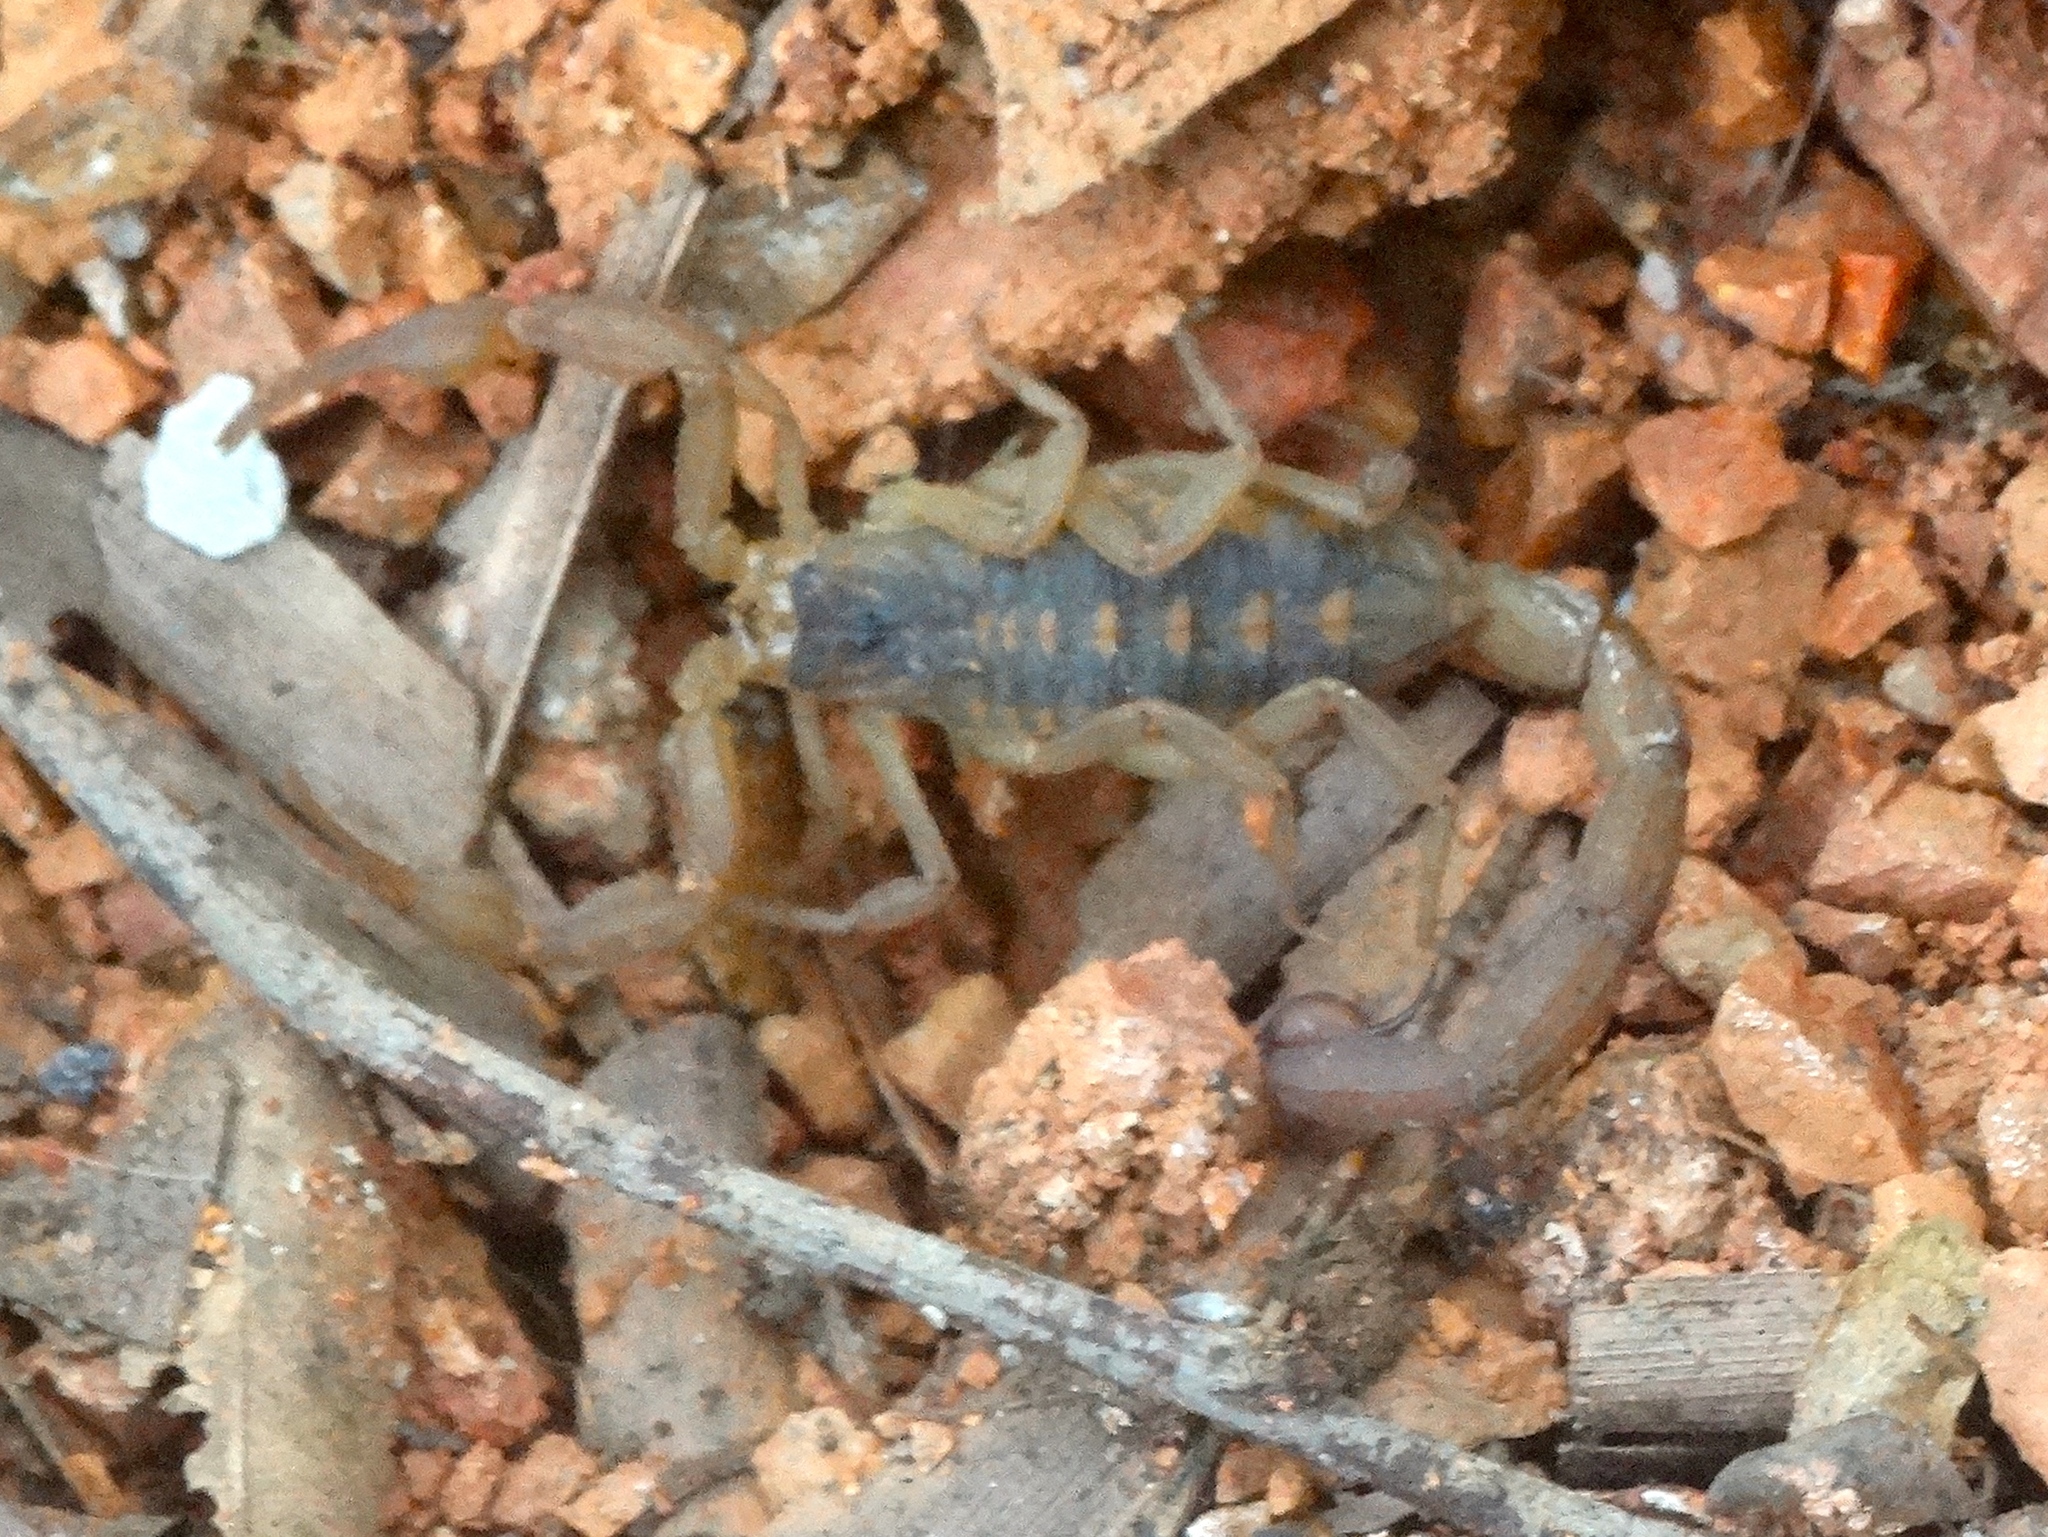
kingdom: Animalia
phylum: Arthropoda
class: Arachnida
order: Scorpiones
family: Buthidae
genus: Centruroides
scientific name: Centruroides baldazoi
